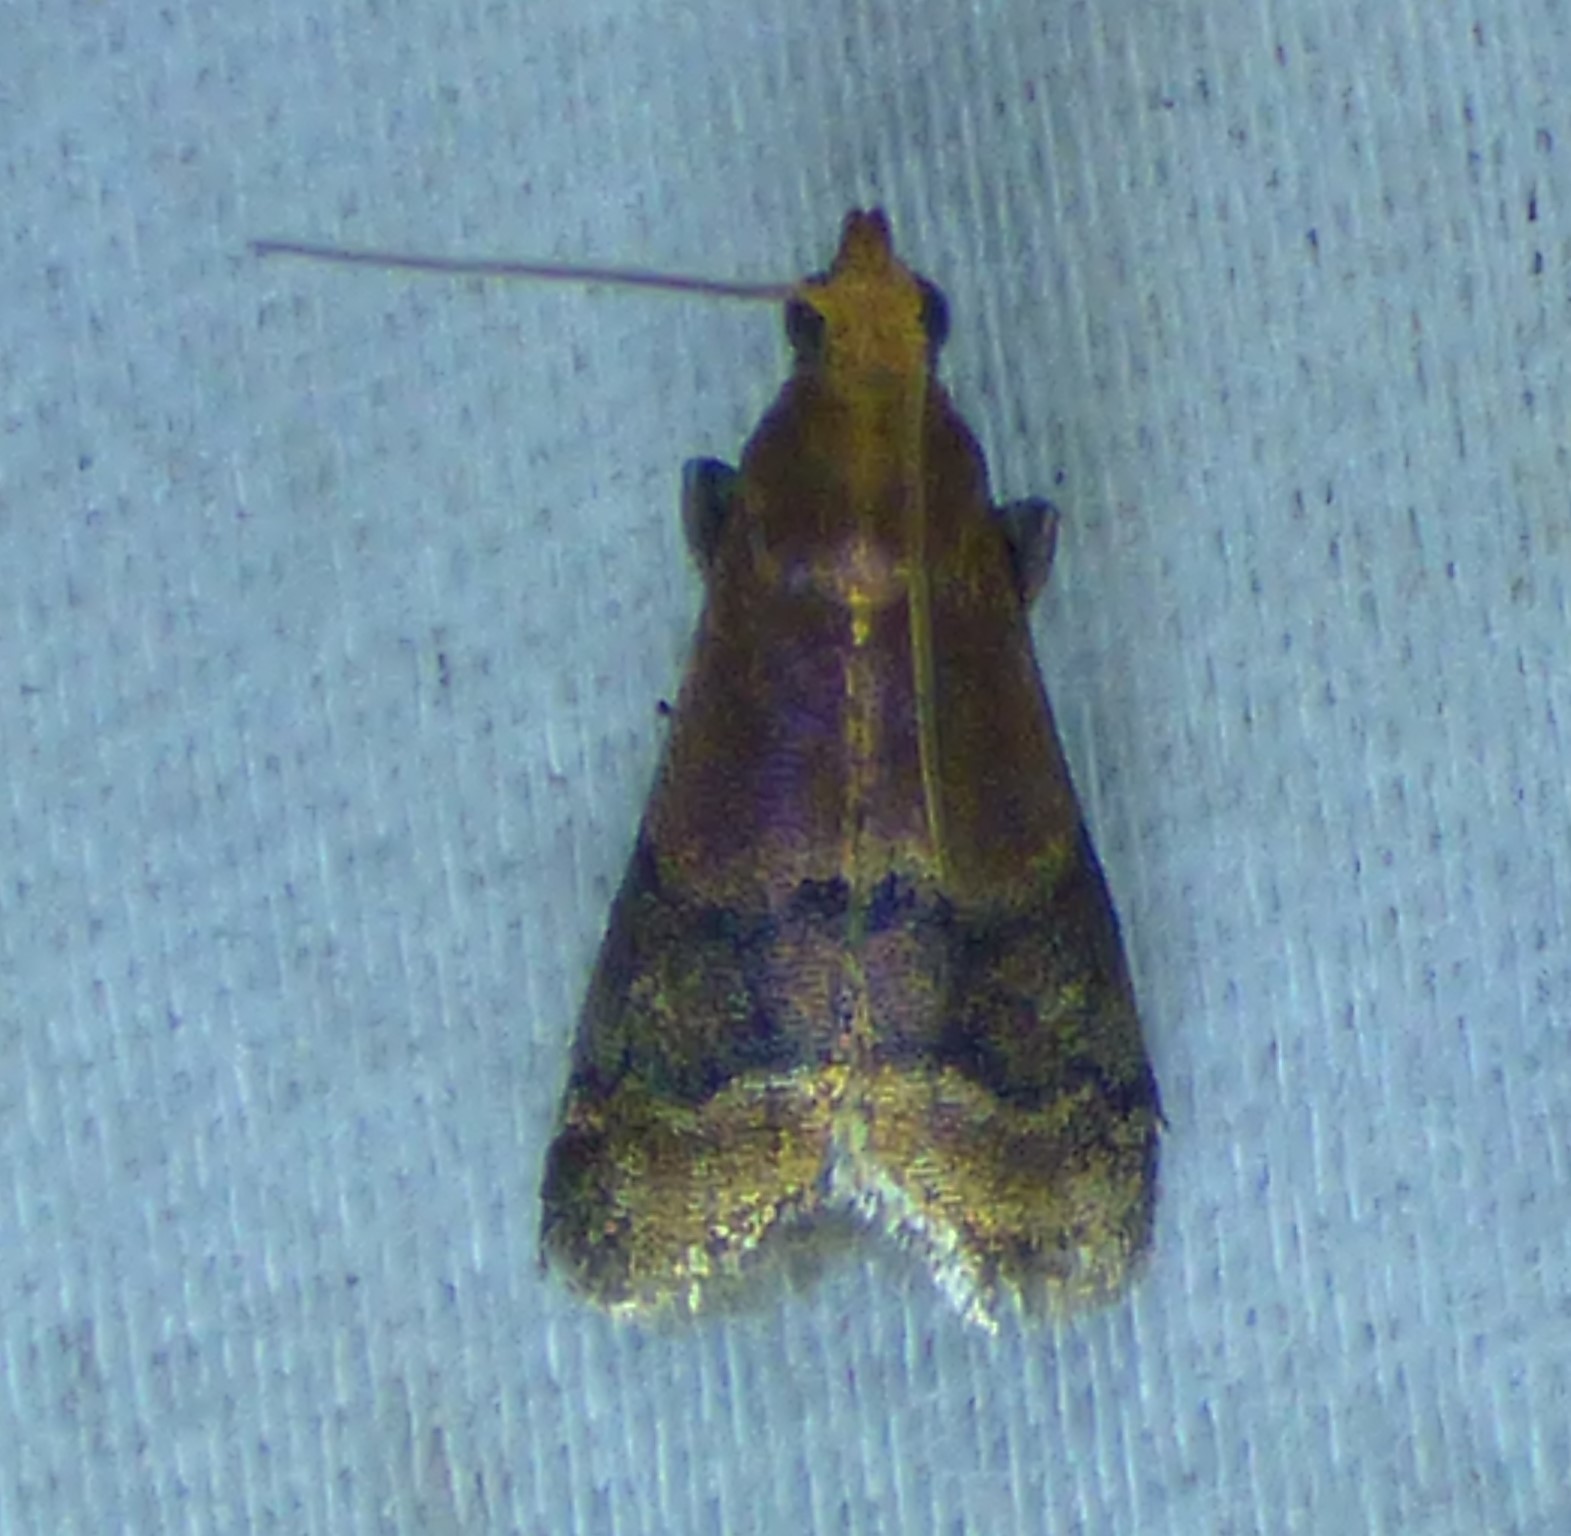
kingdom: Animalia
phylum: Arthropoda
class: Insecta
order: Lepidoptera
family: Pyralidae
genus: Eulogia
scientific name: Eulogia ochrifrontella
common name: Broad-banded eulogia moth
